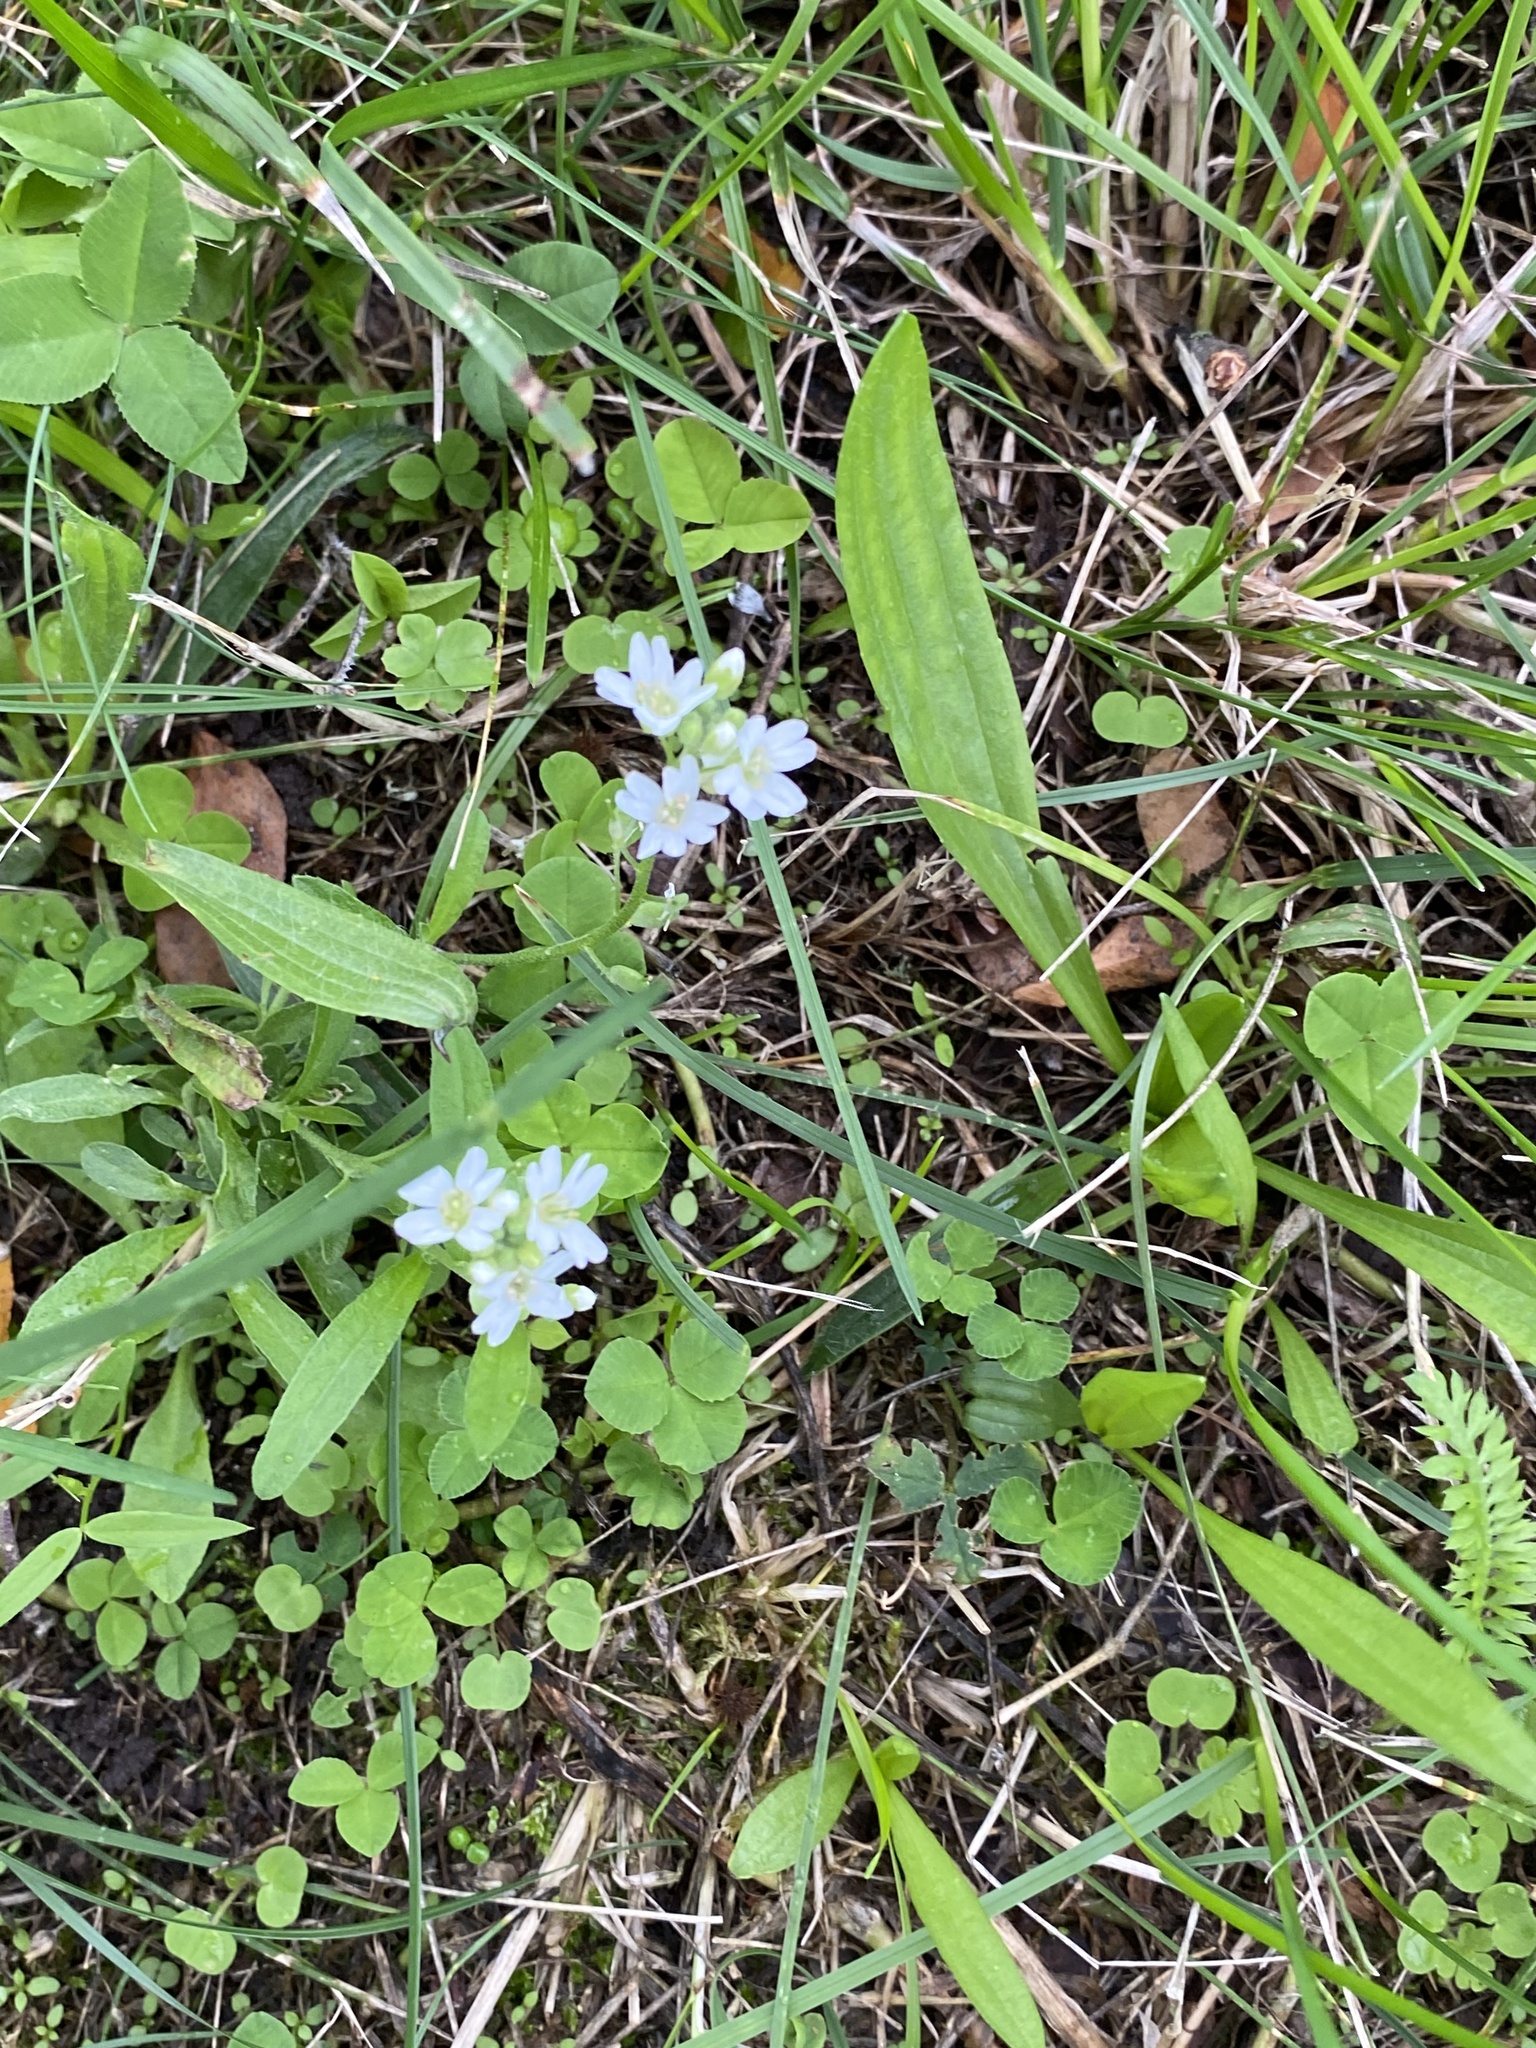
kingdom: Plantae
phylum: Tracheophyta
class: Magnoliopsida
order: Brassicales
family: Brassicaceae
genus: Berteroa
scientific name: Berteroa incana
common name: Hoary alison
